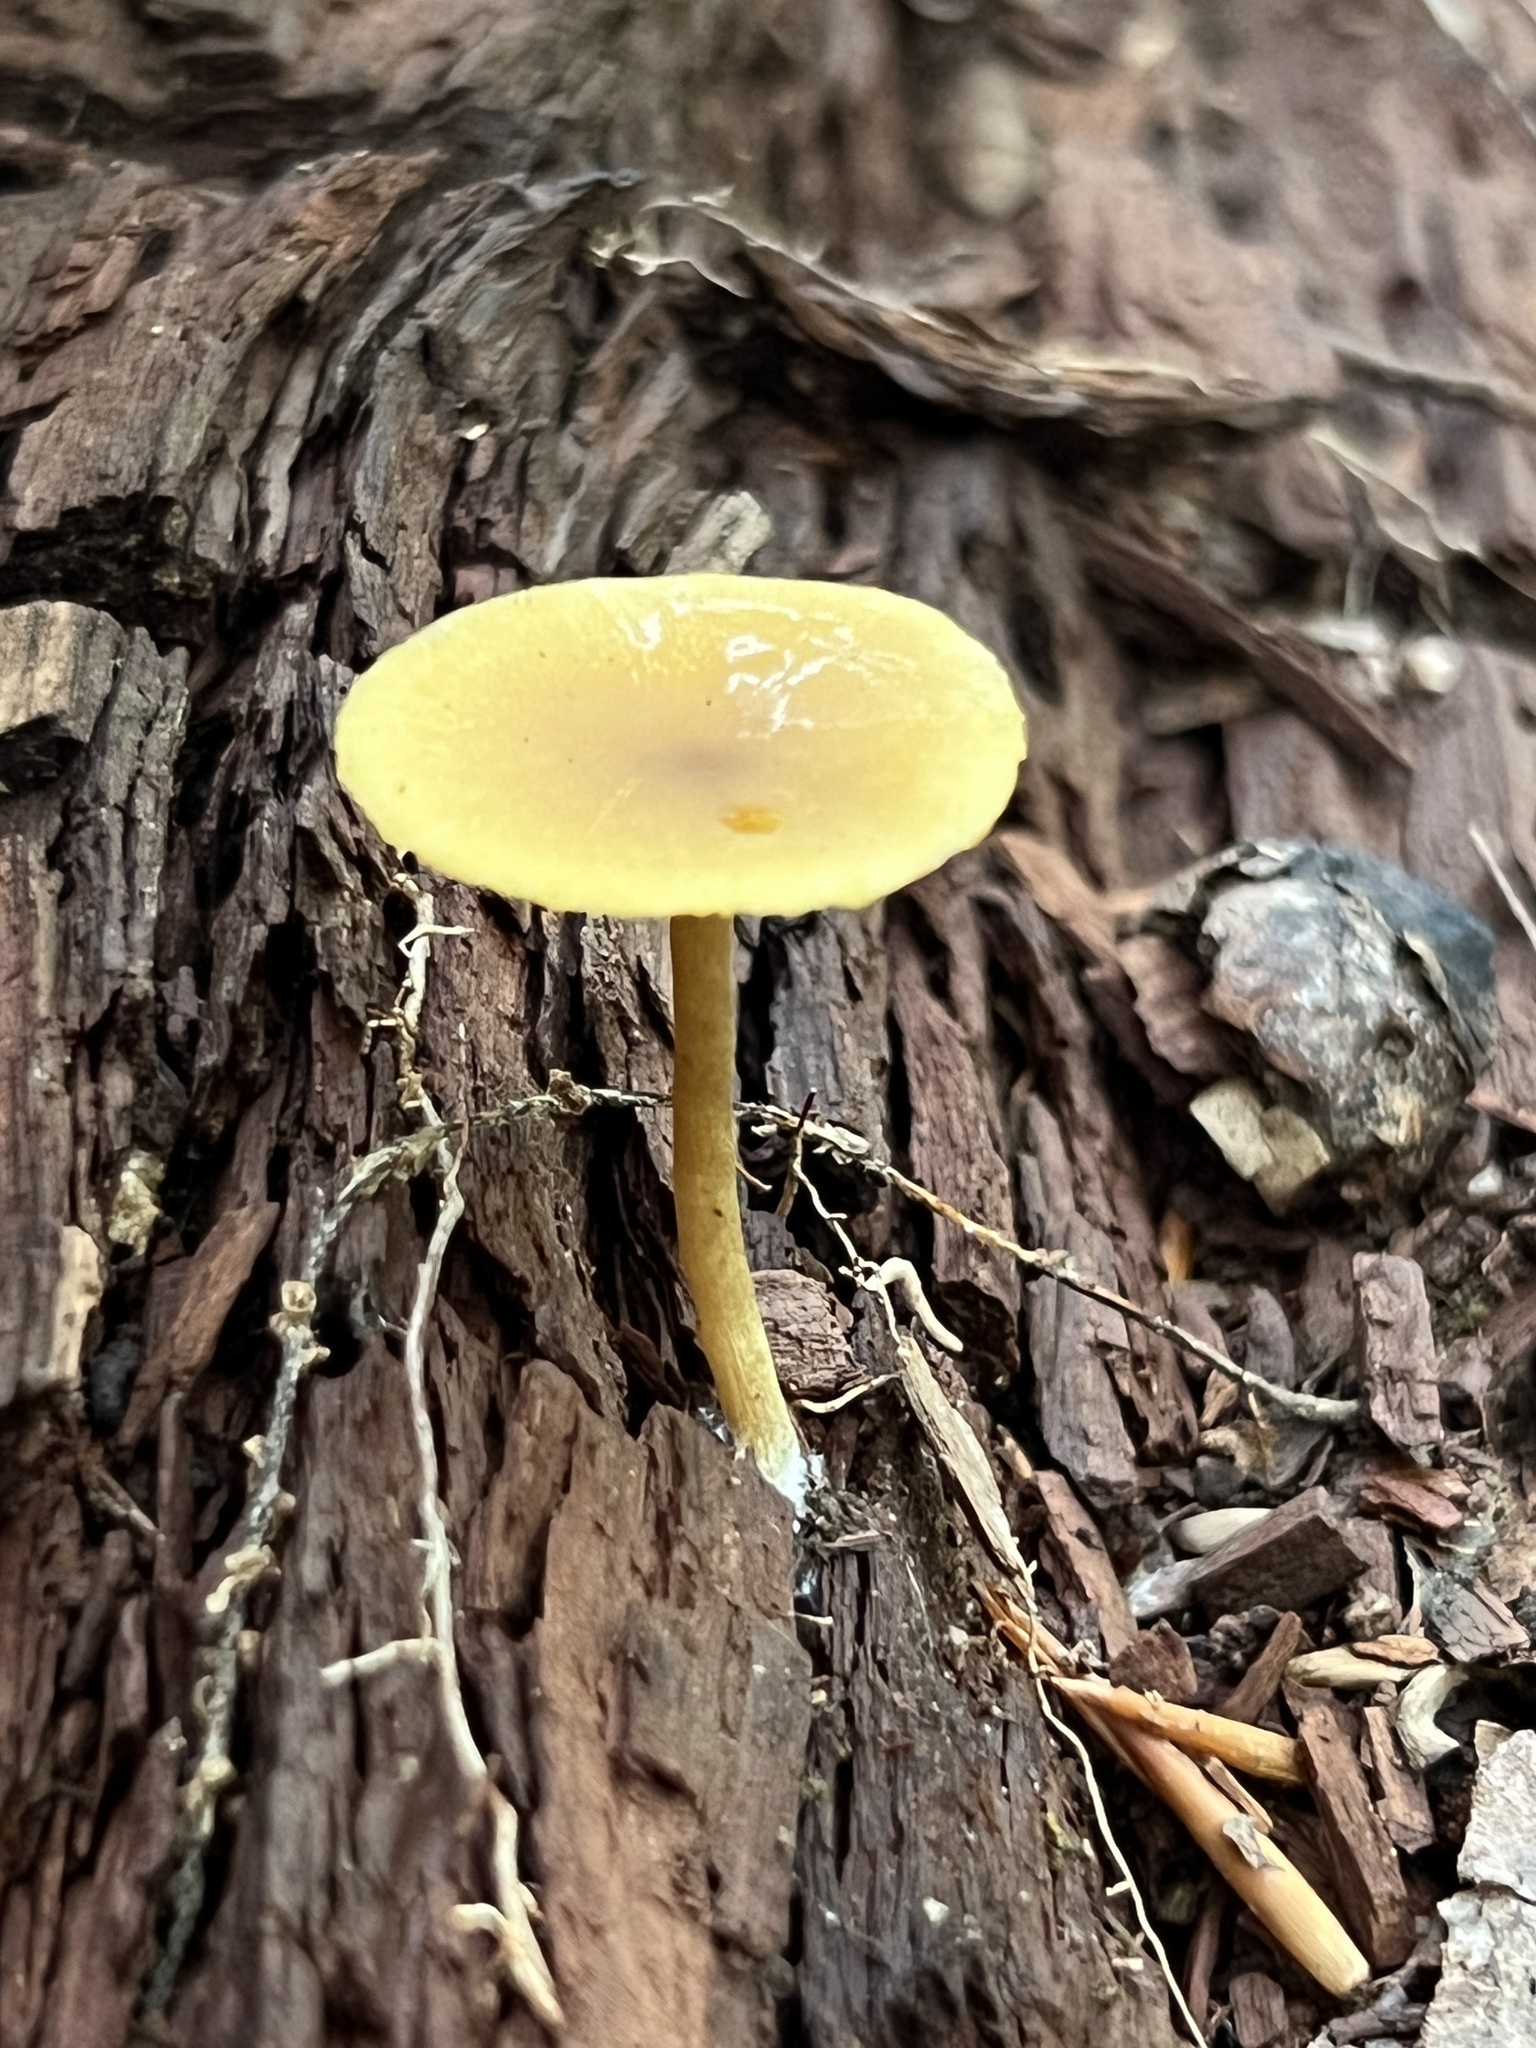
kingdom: Fungi
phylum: Basidiomycota
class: Agaricomycetes
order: Agaricales
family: Callistosporiaceae
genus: Callistosporium
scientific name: Callistosporium luteo-olivaceum
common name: Olive lute
